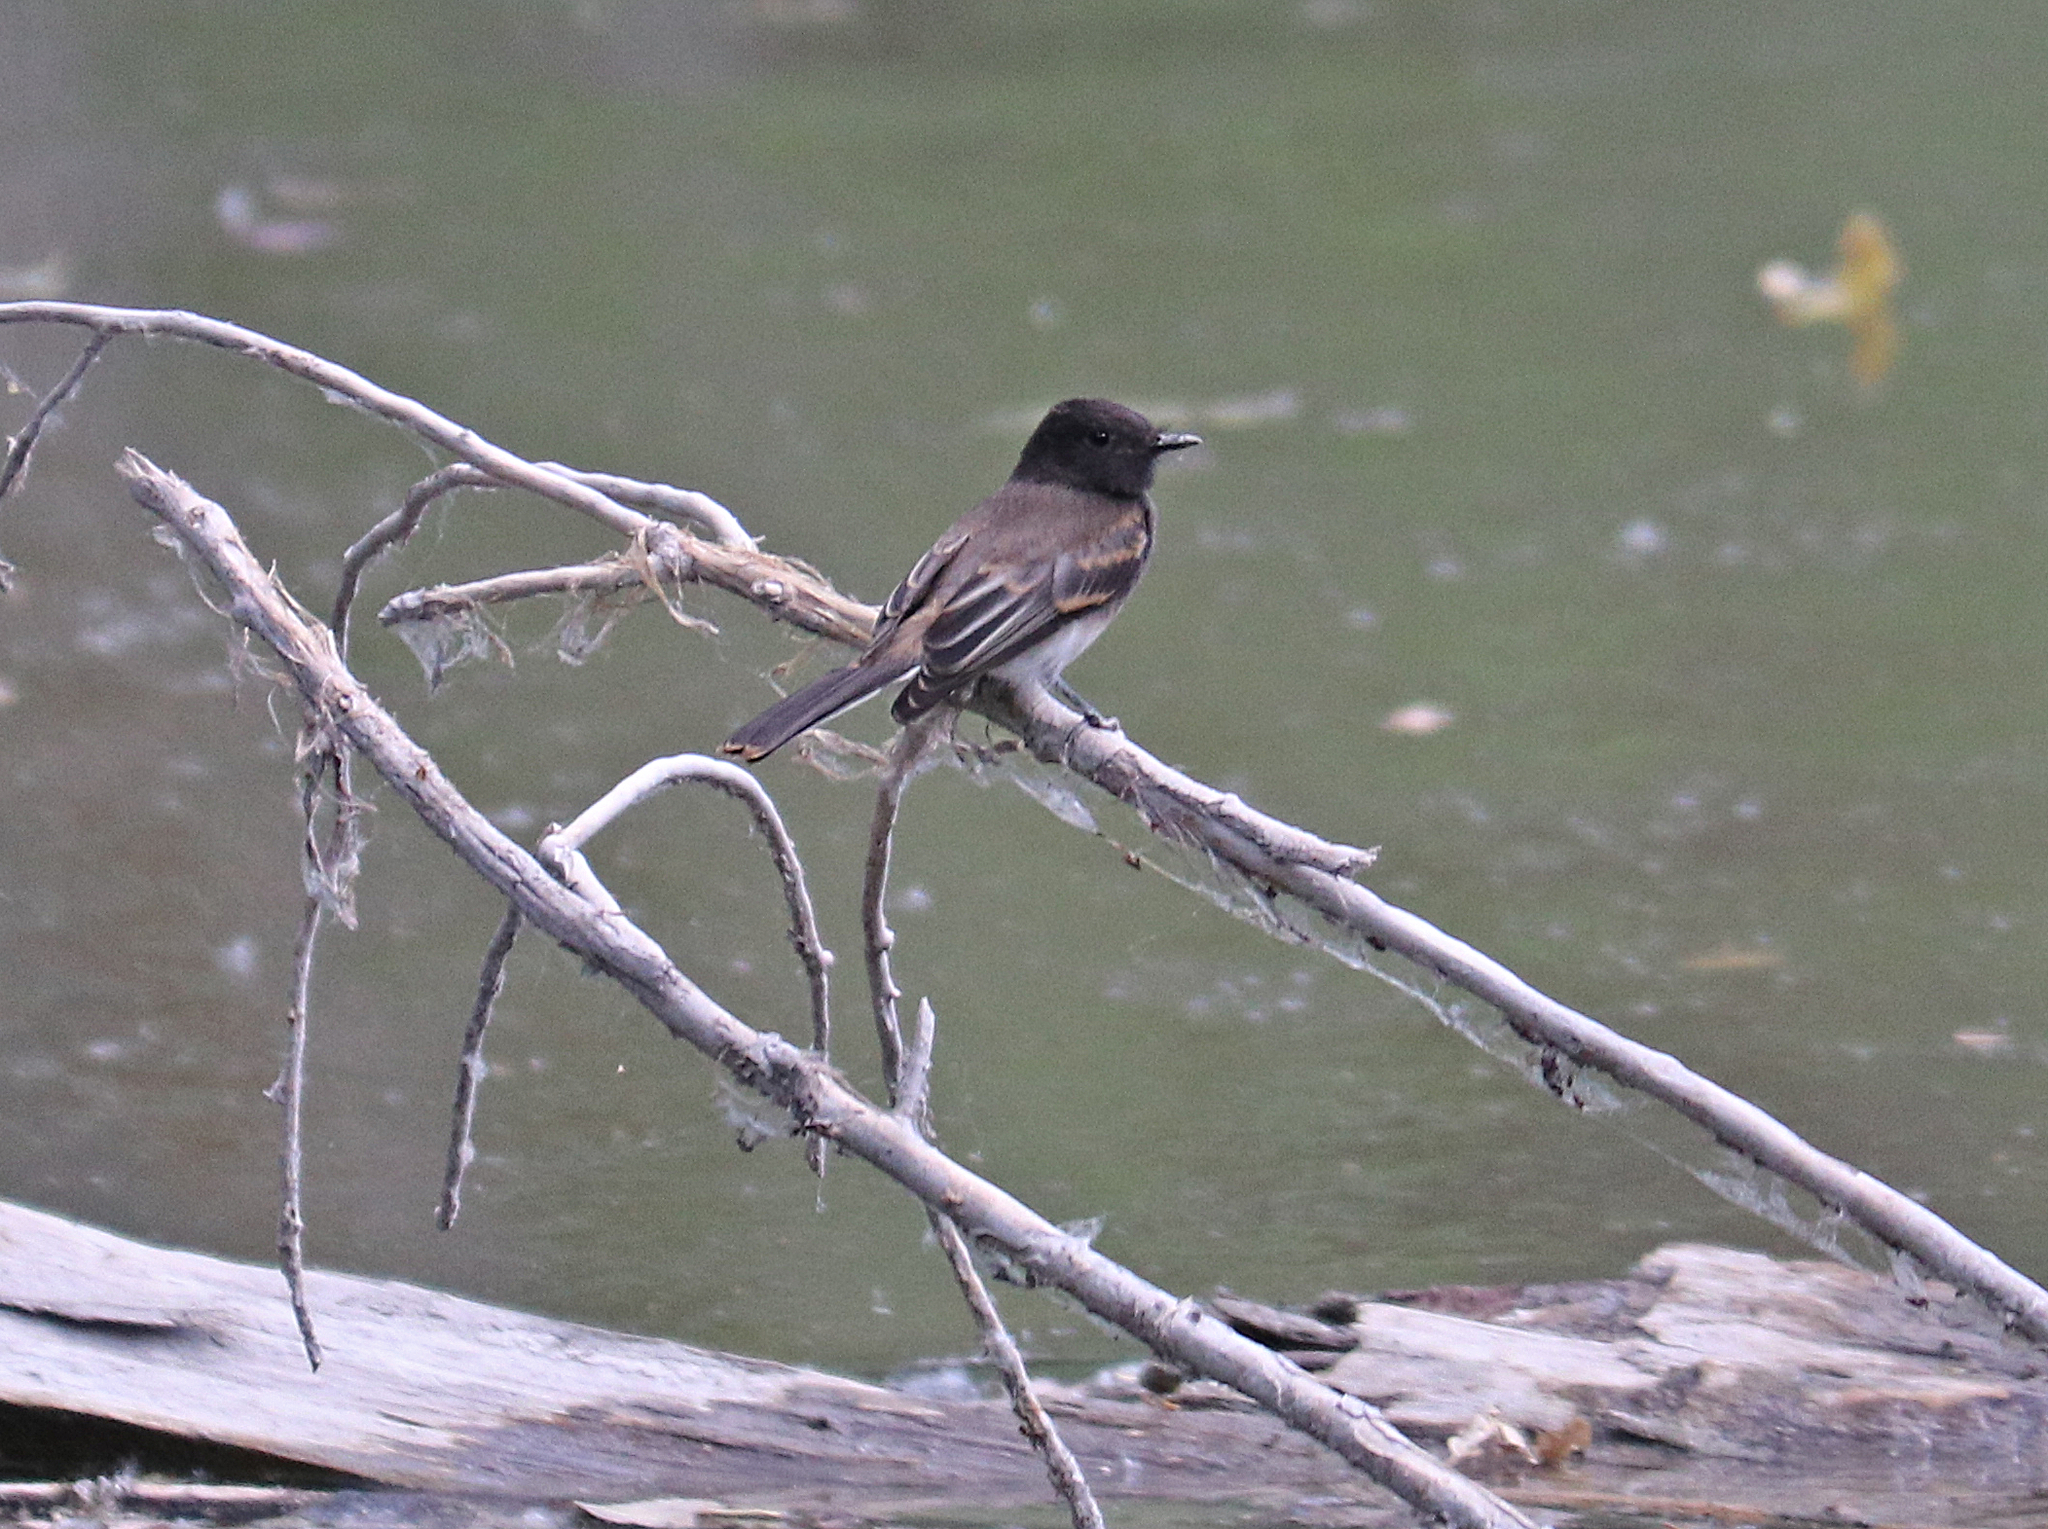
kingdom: Animalia
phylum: Chordata
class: Aves
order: Passeriformes
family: Tyrannidae
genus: Sayornis
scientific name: Sayornis nigricans
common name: Black phoebe
